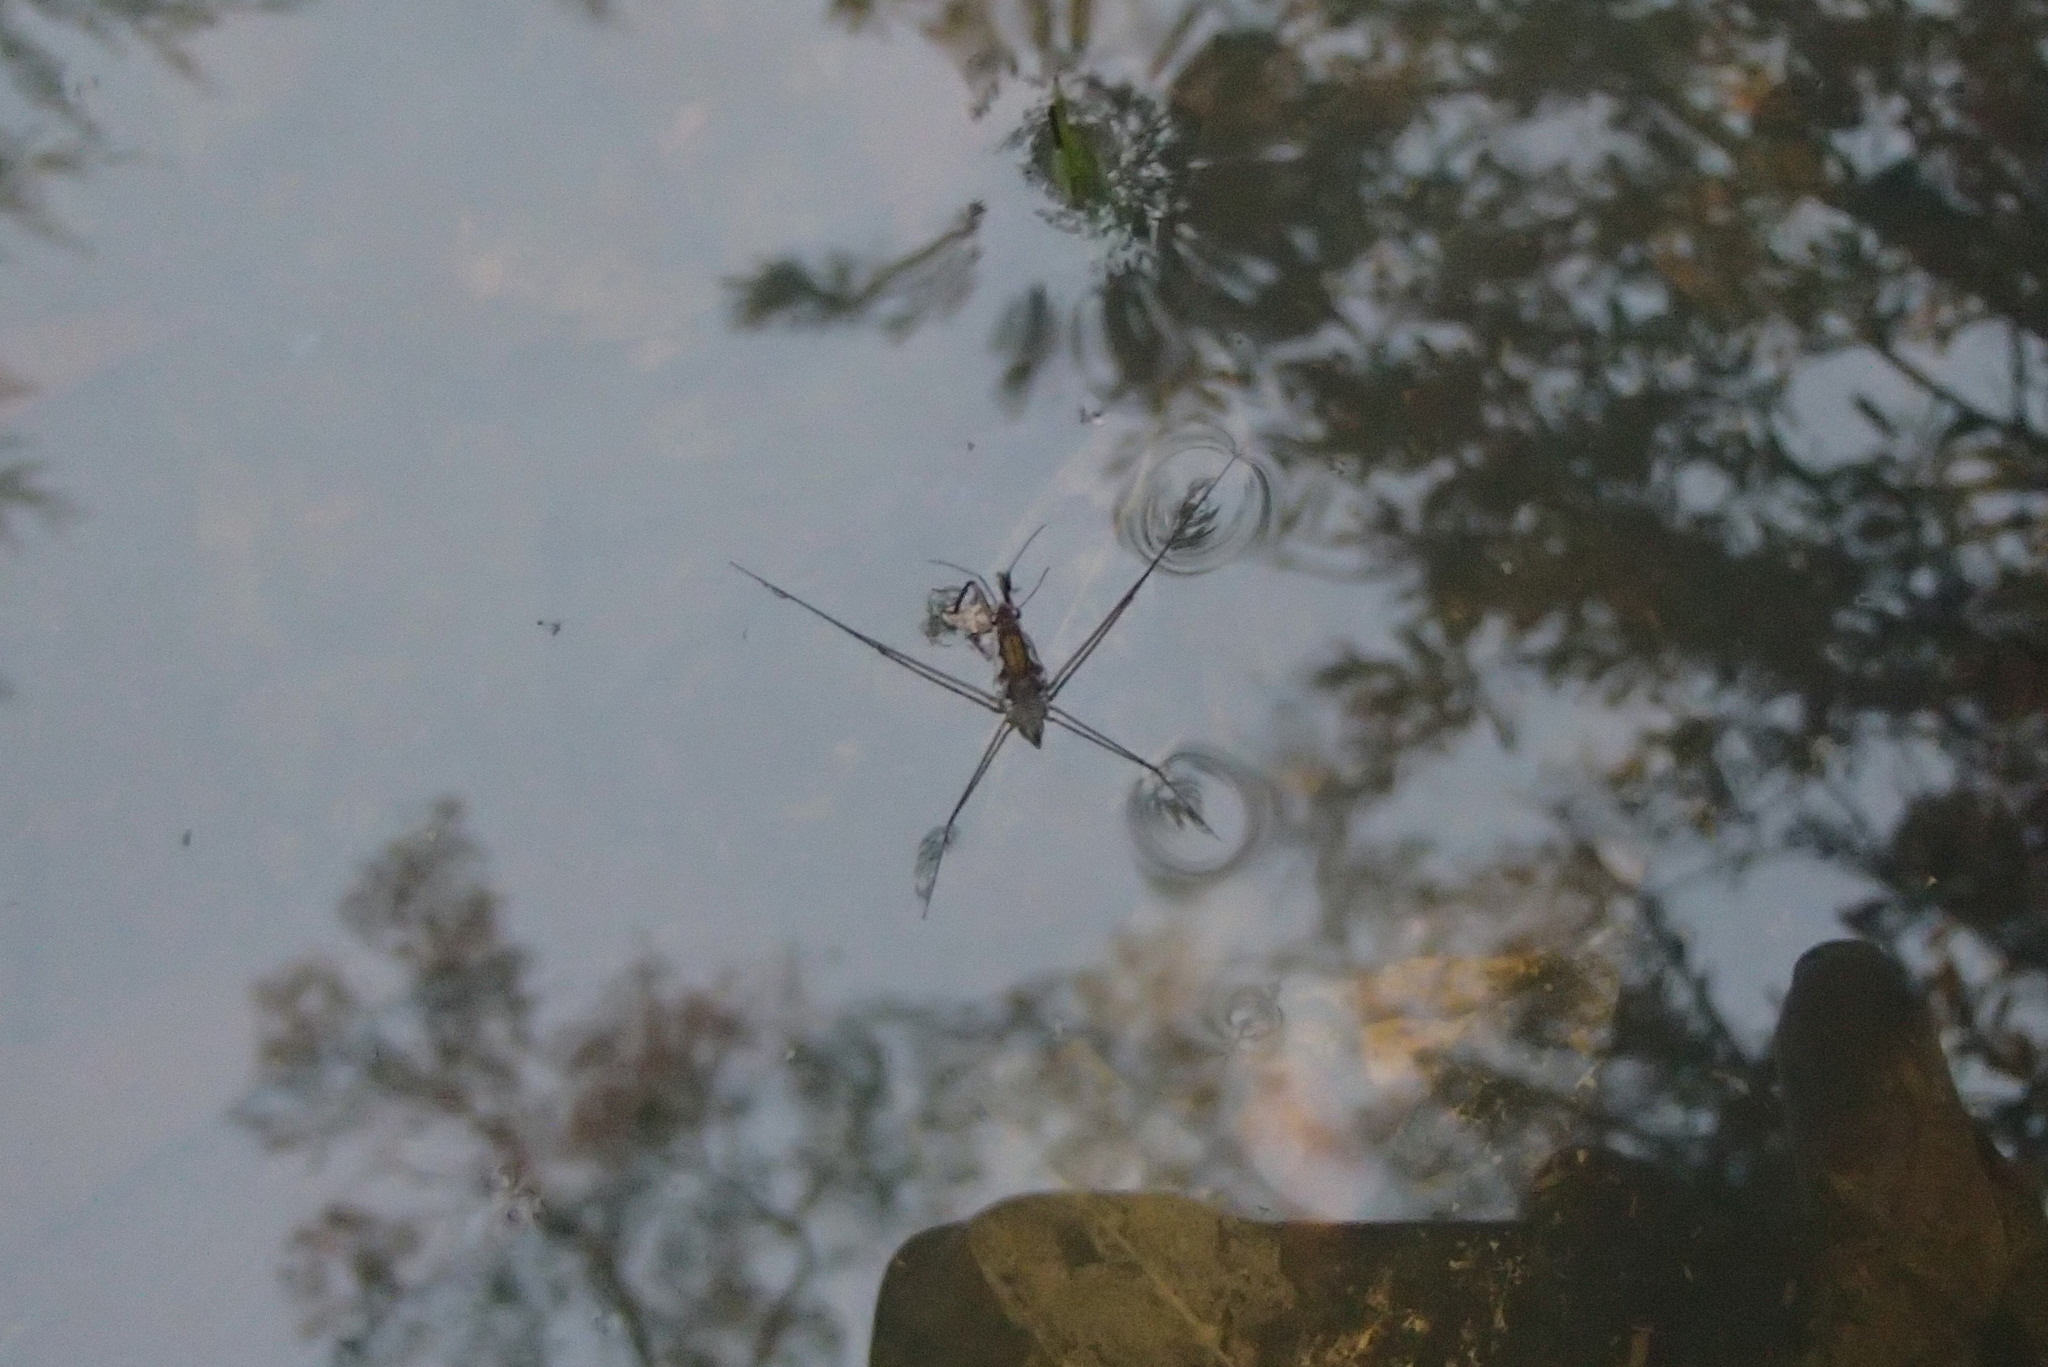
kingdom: Animalia
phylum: Arthropoda
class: Insecta
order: Hemiptera
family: Gerridae
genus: Tenagogerris
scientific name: Tenagogerris euphrosyne
